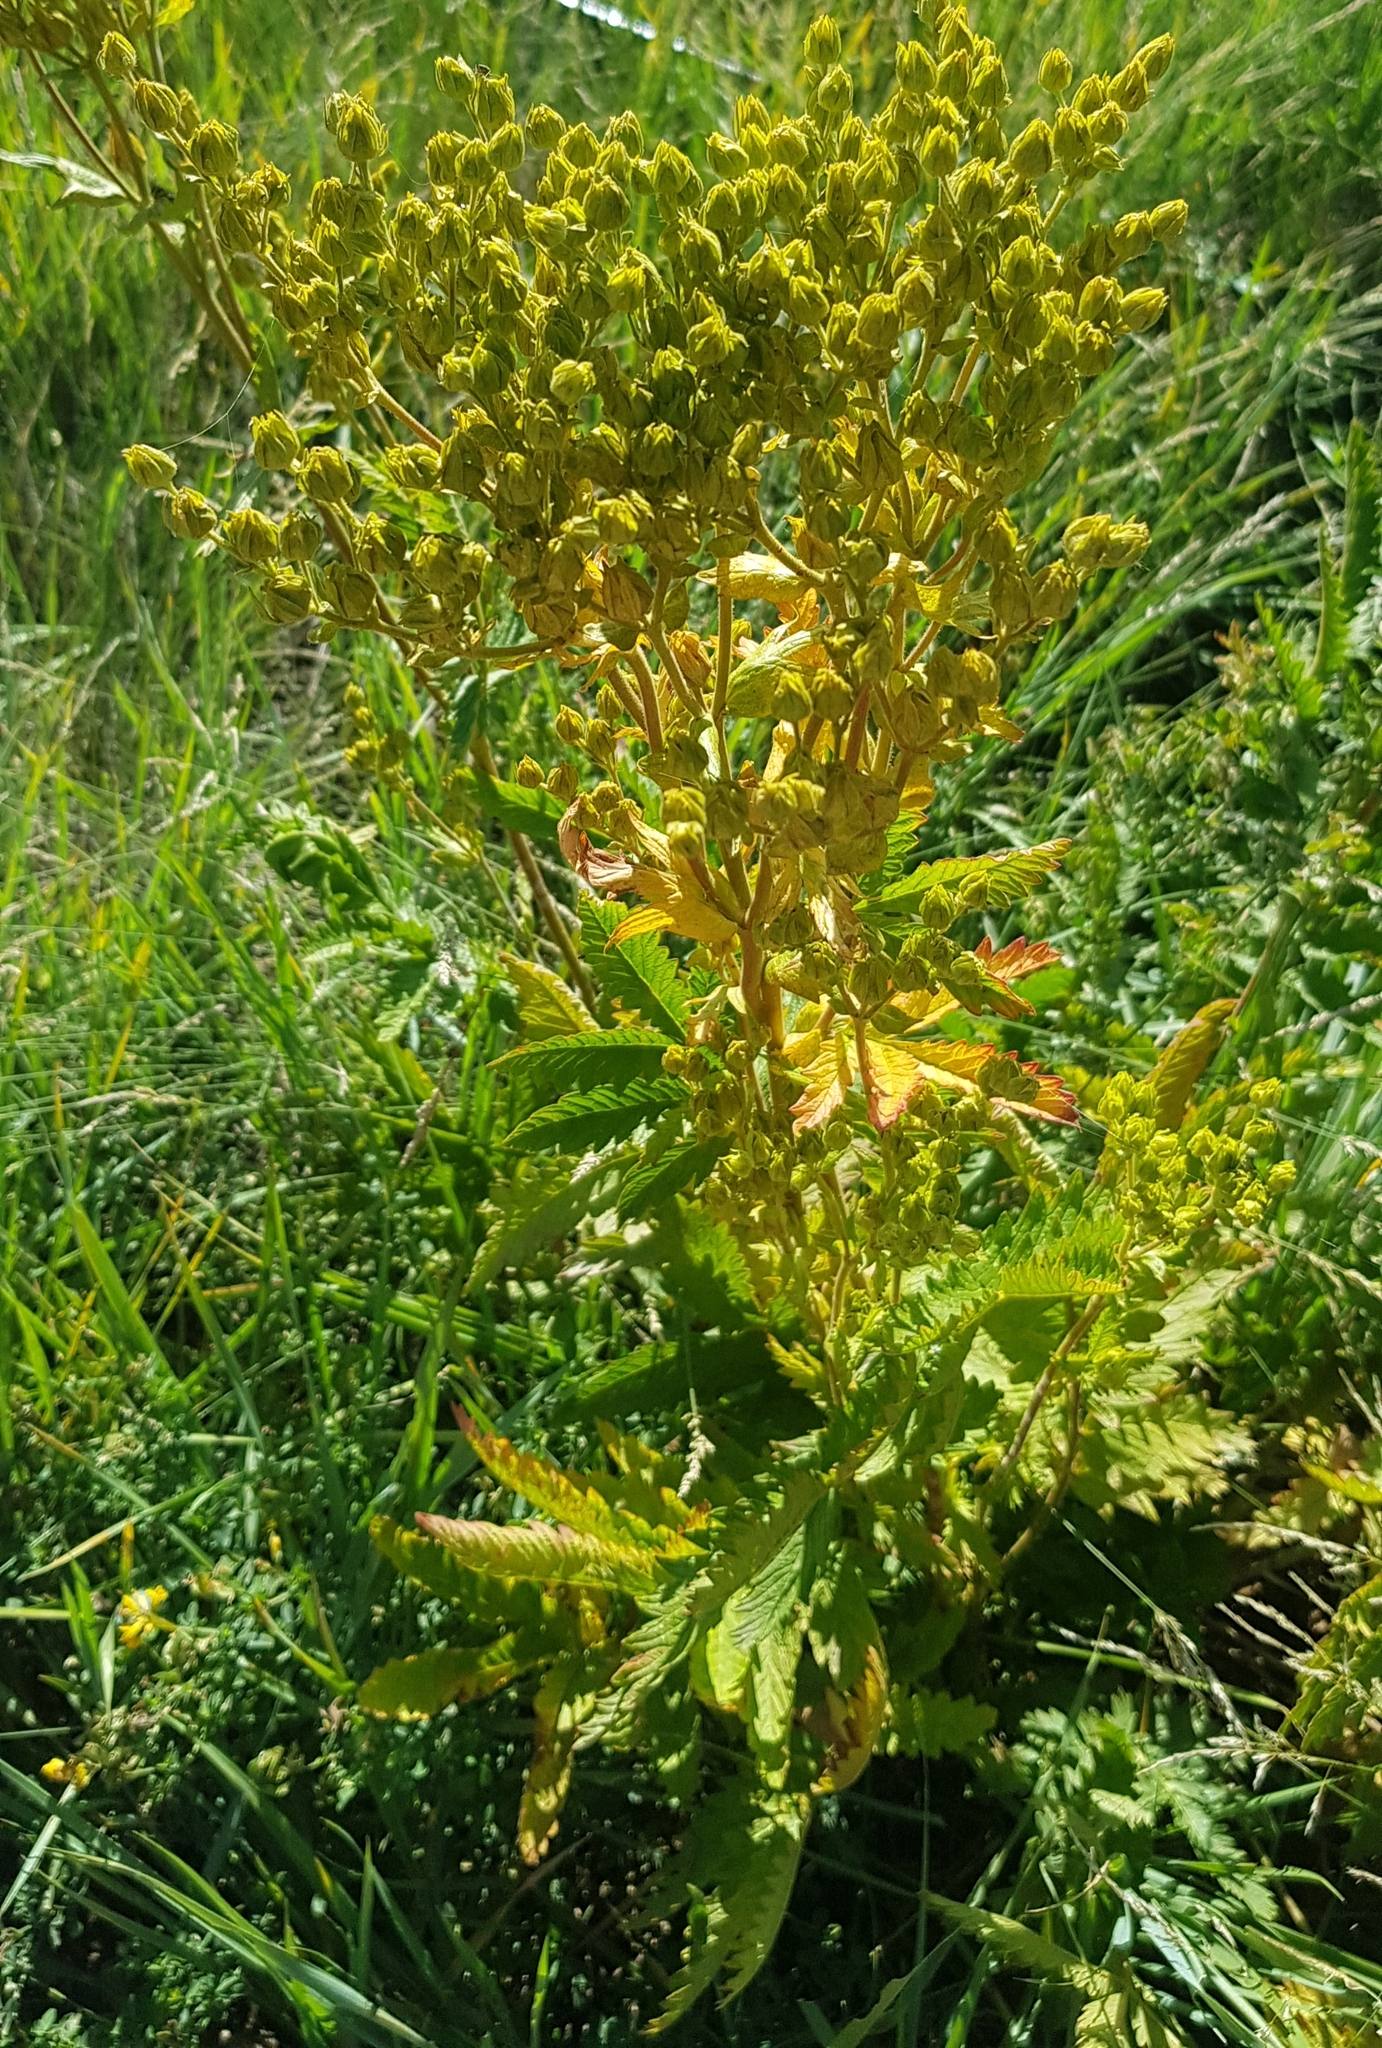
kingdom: Plantae
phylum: Tracheophyta
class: Magnoliopsida
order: Rosales
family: Rosaceae
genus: Filipendula
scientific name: Filipendula ulmaria
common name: Meadowsweet
